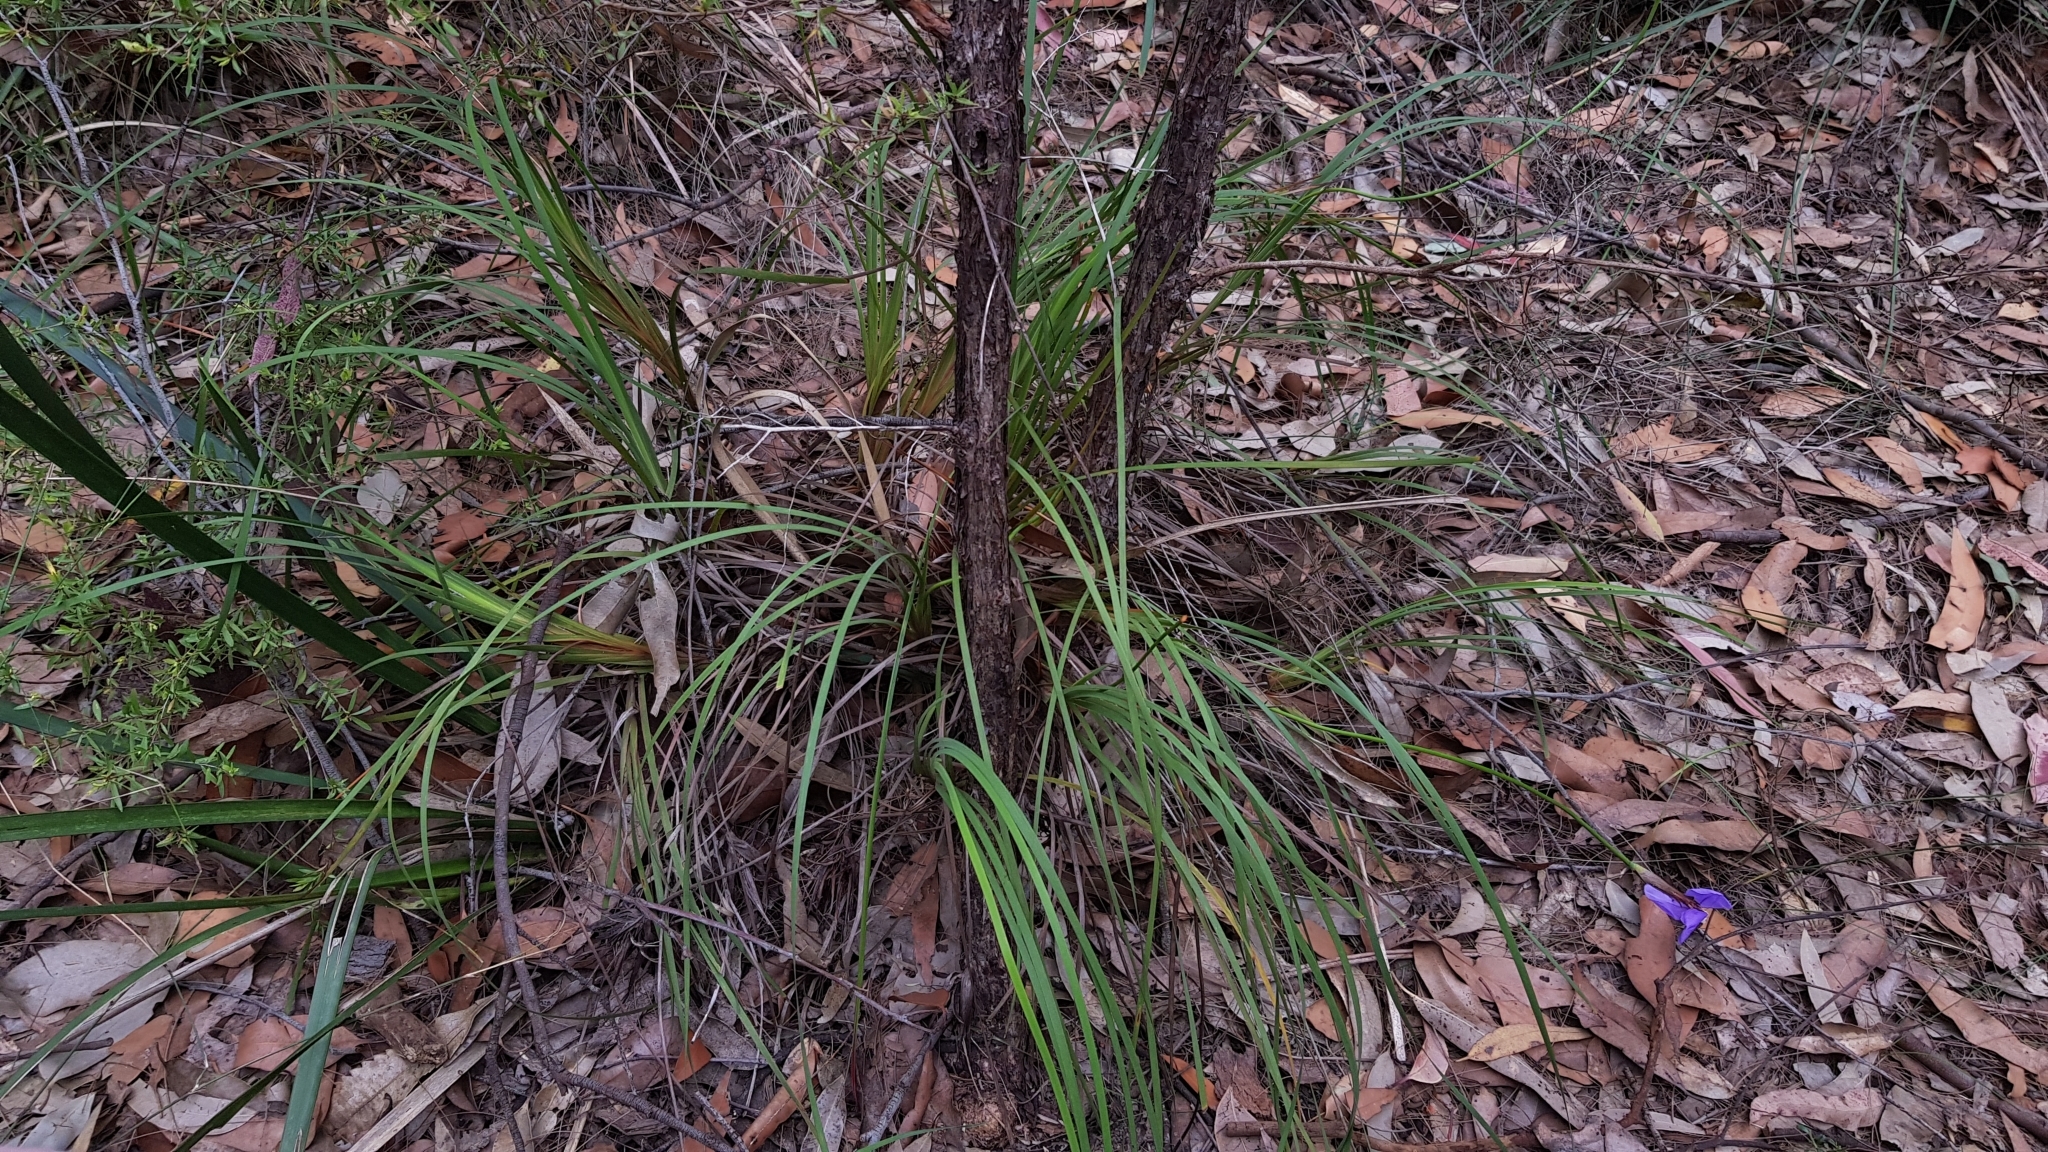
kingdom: Plantae
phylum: Tracheophyta
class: Liliopsida
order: Asparagales
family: Iridaceae
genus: Patersonia
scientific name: Patersonia glabrata
